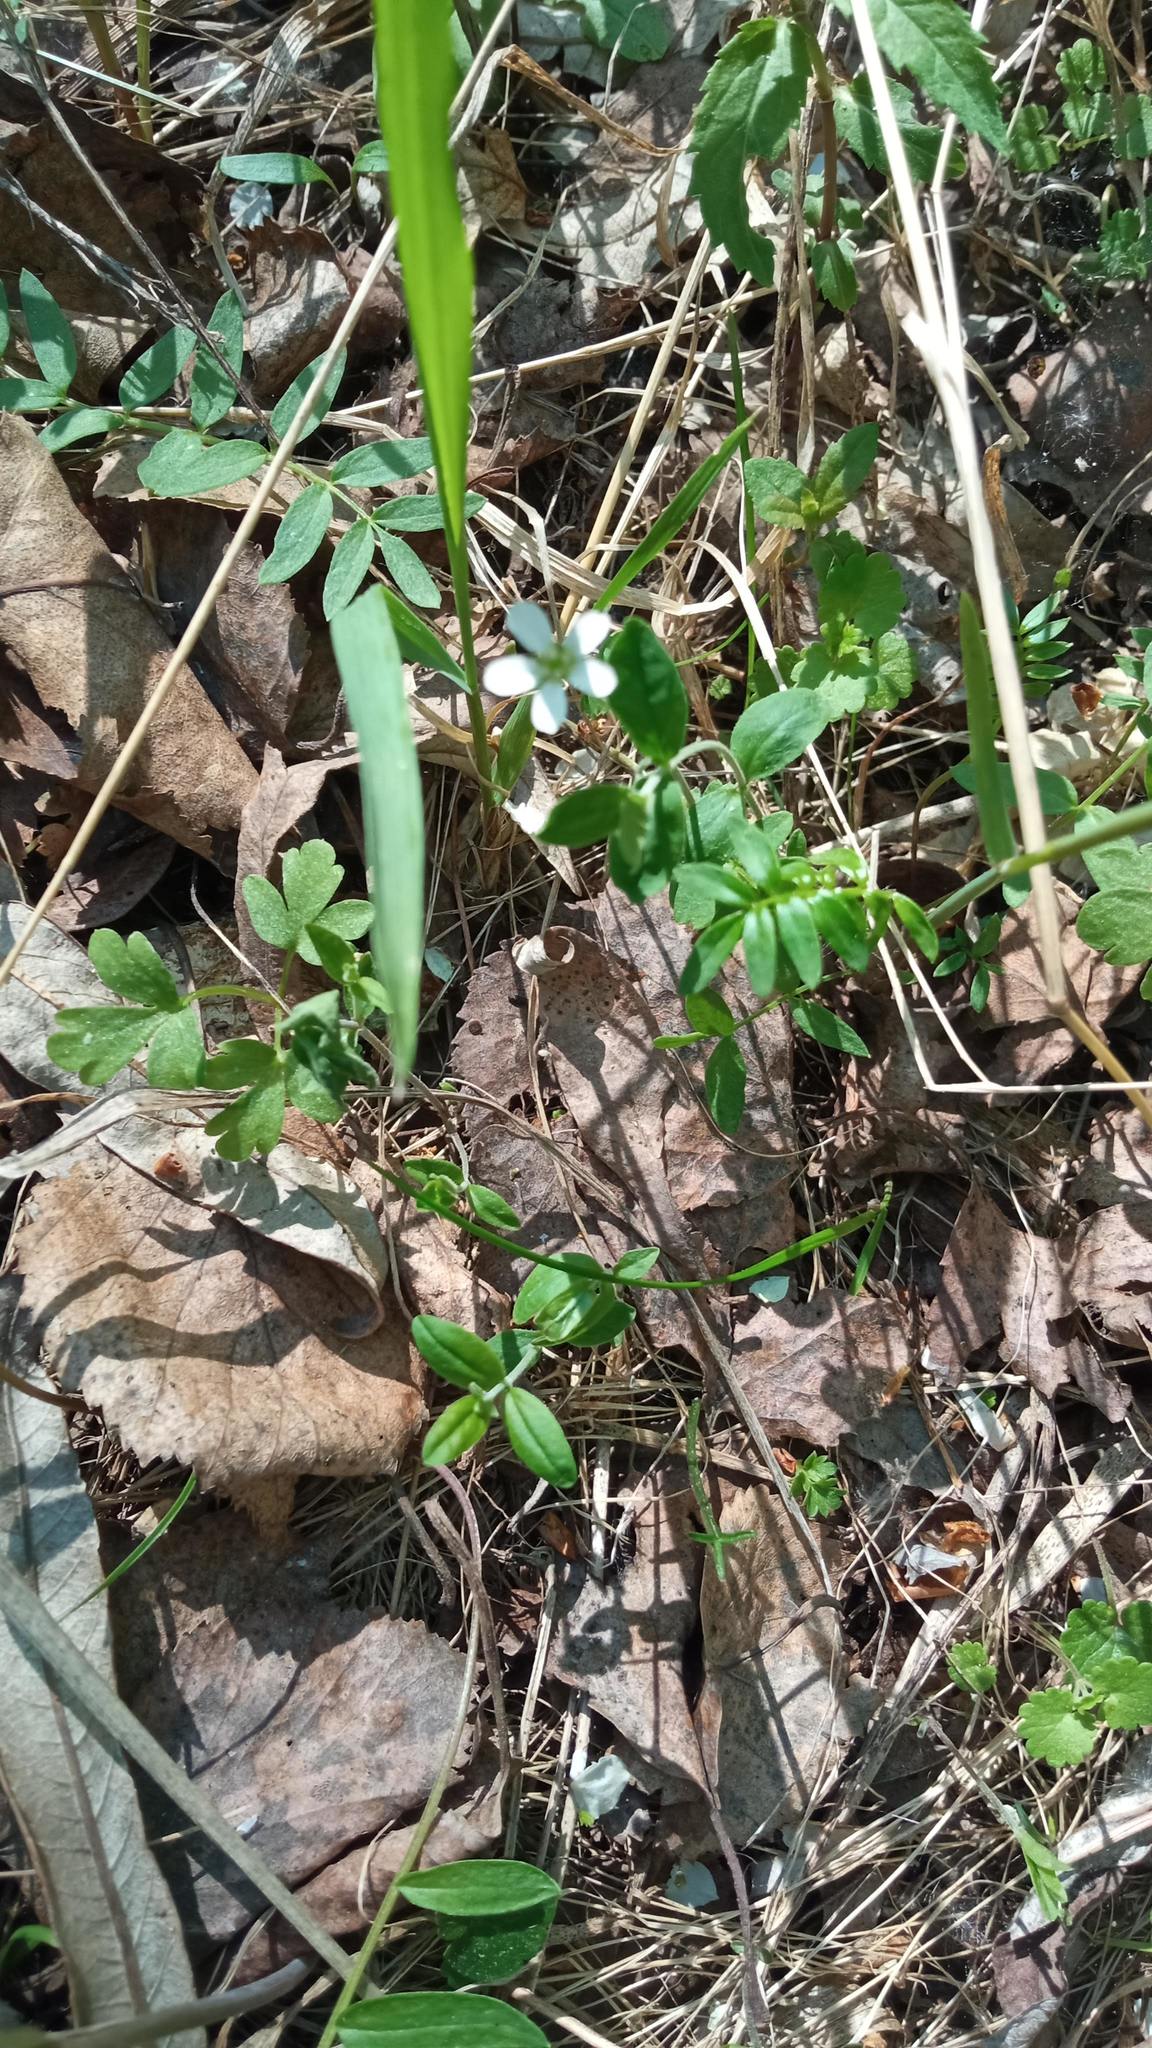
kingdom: Plantae
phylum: Tracheophyta
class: Magnoliopsida
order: Caryophyllales
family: Caryophyllaceae
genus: Moehringia
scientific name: Moehringia lateriflora
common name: Blunt-leaved sandwort
